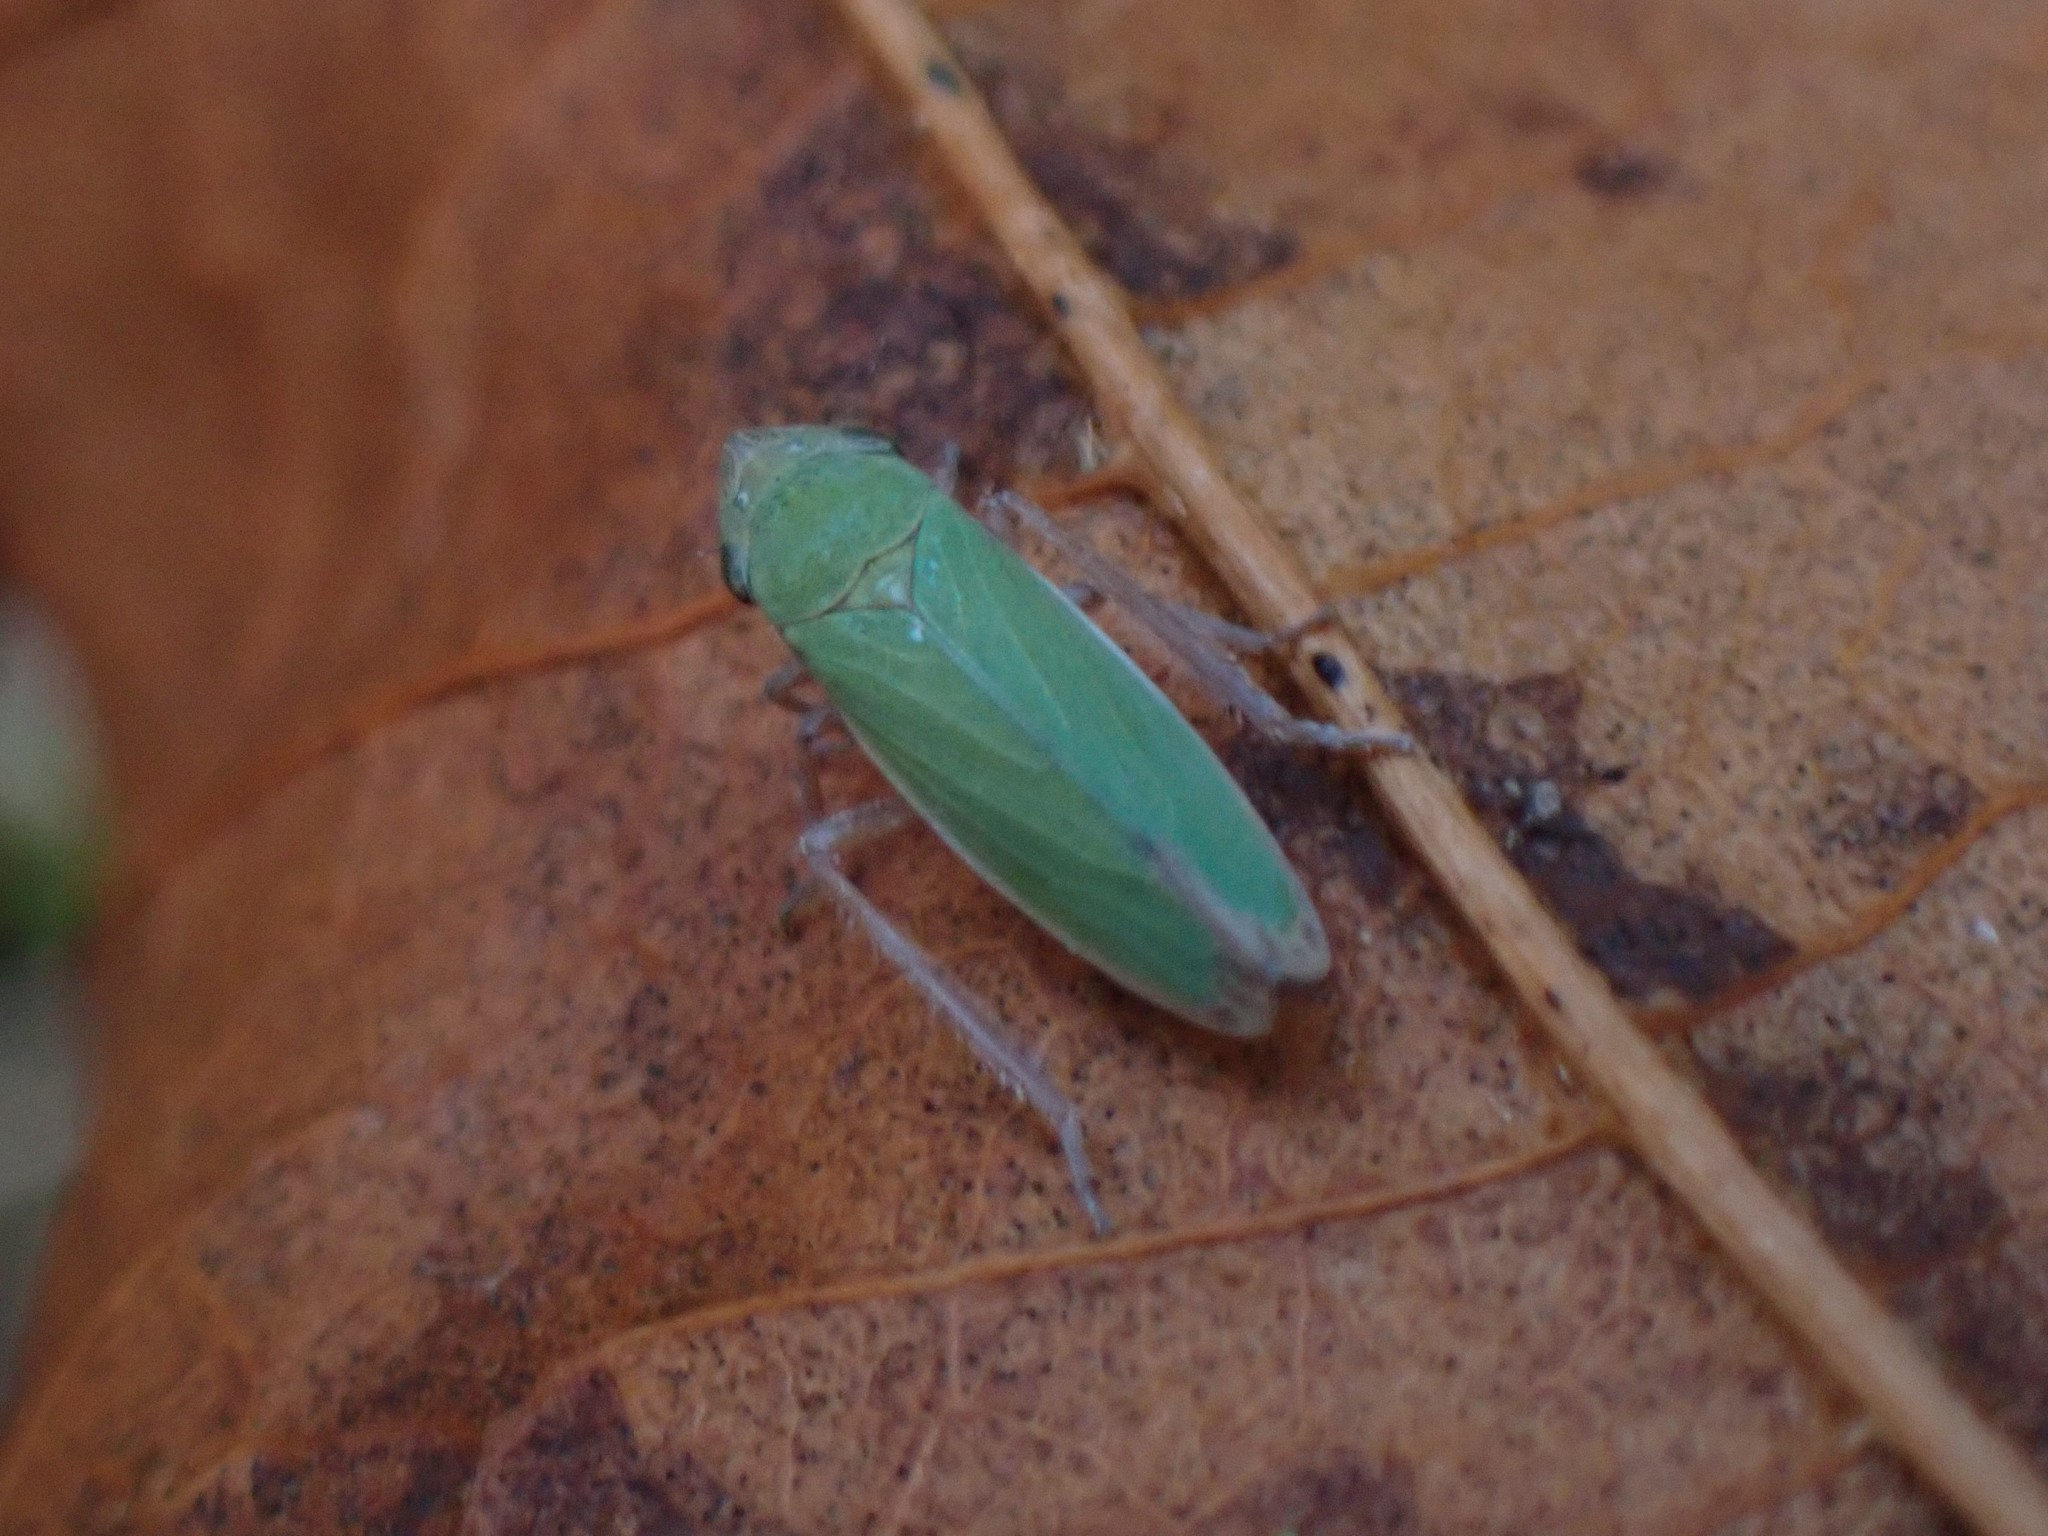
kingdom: Animalia
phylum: Arthropoda
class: Insecta
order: Hemiptera
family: Cicadellidae
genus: Helochara
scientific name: Helochara delta
